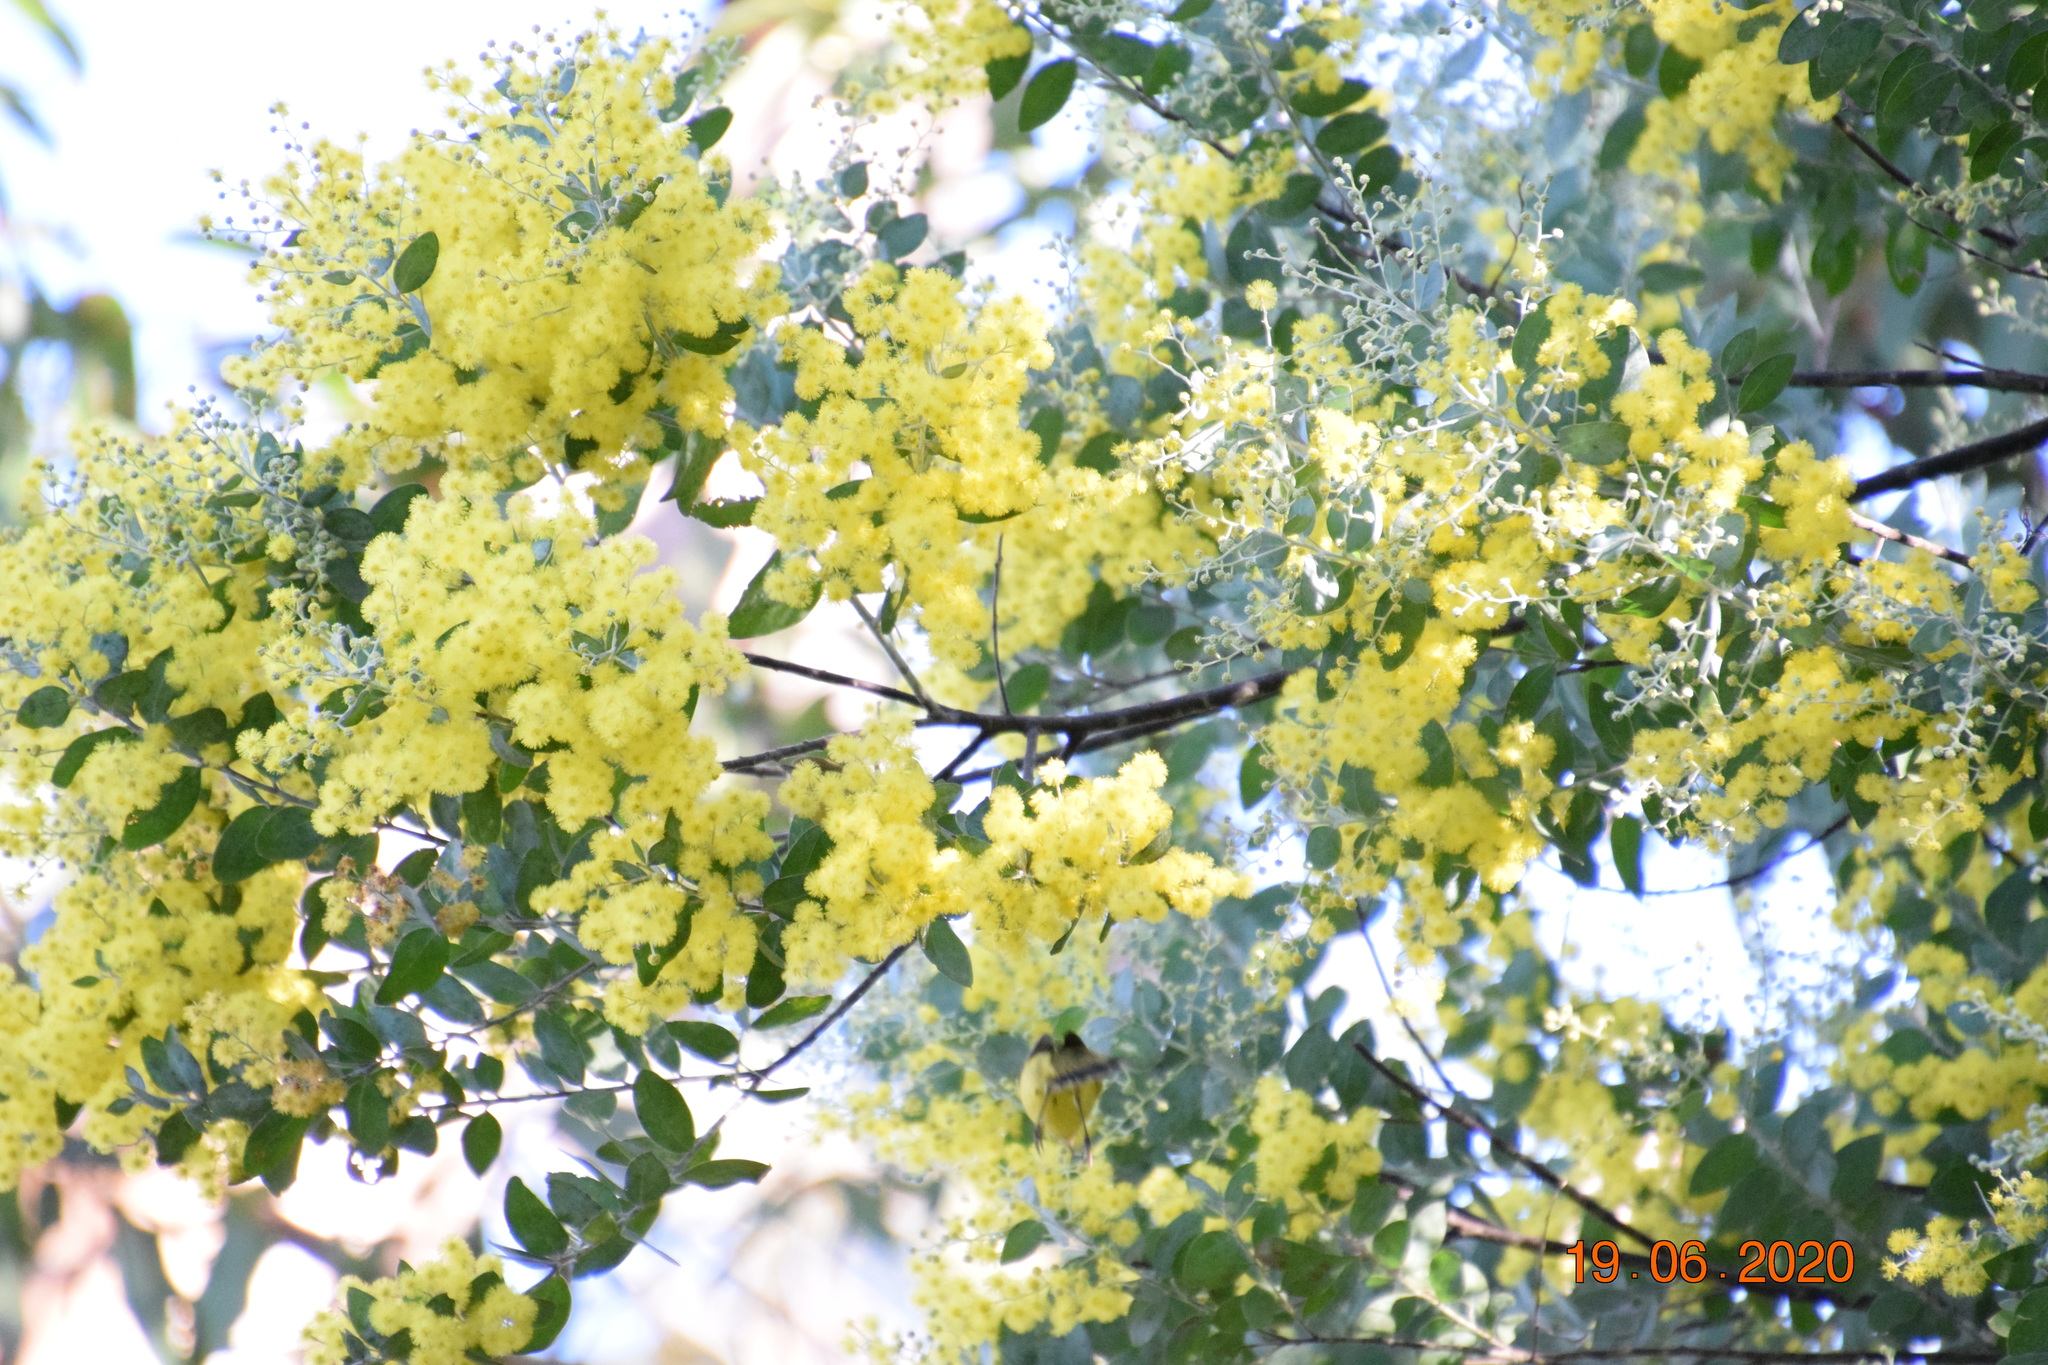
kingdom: Plantae
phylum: Tracheophyta
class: Magnoliopsida
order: Fabales
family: Fabaceae
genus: Acacia
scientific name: Acacia podalyriifolia
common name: Pearl wattle
